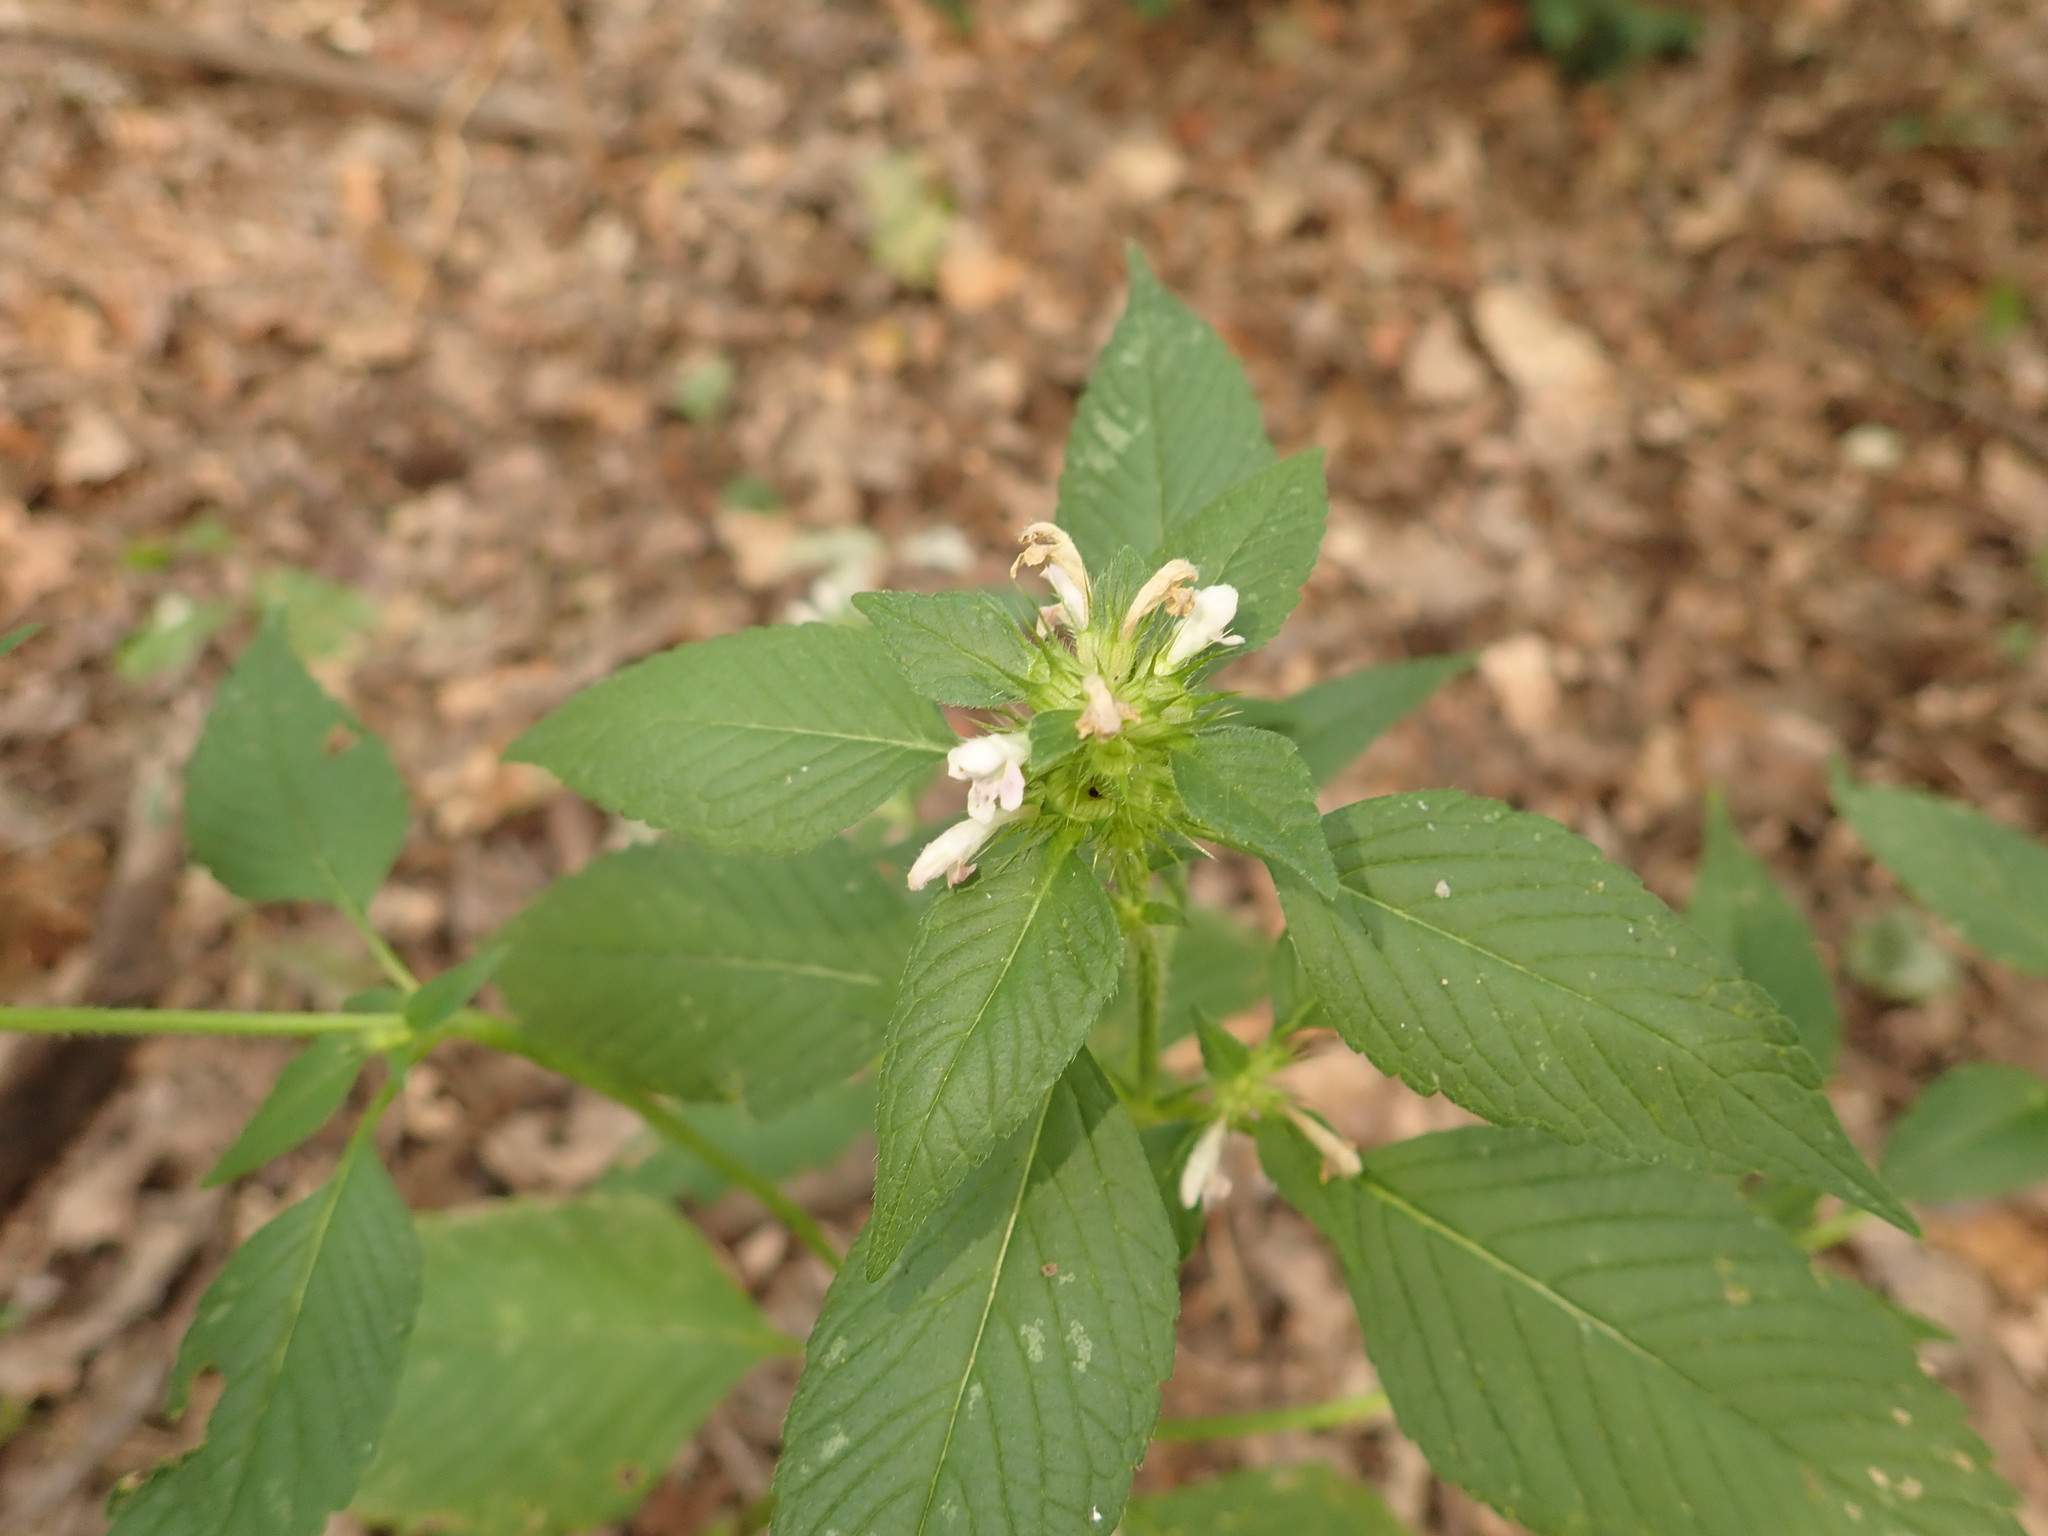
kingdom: Plantae
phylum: Tracheophyta
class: Magnoliopsida
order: Lamiales
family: Lamiaceae
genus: Galeopsis
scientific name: Galeopsis tetrahit
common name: Common hemp-nettle
